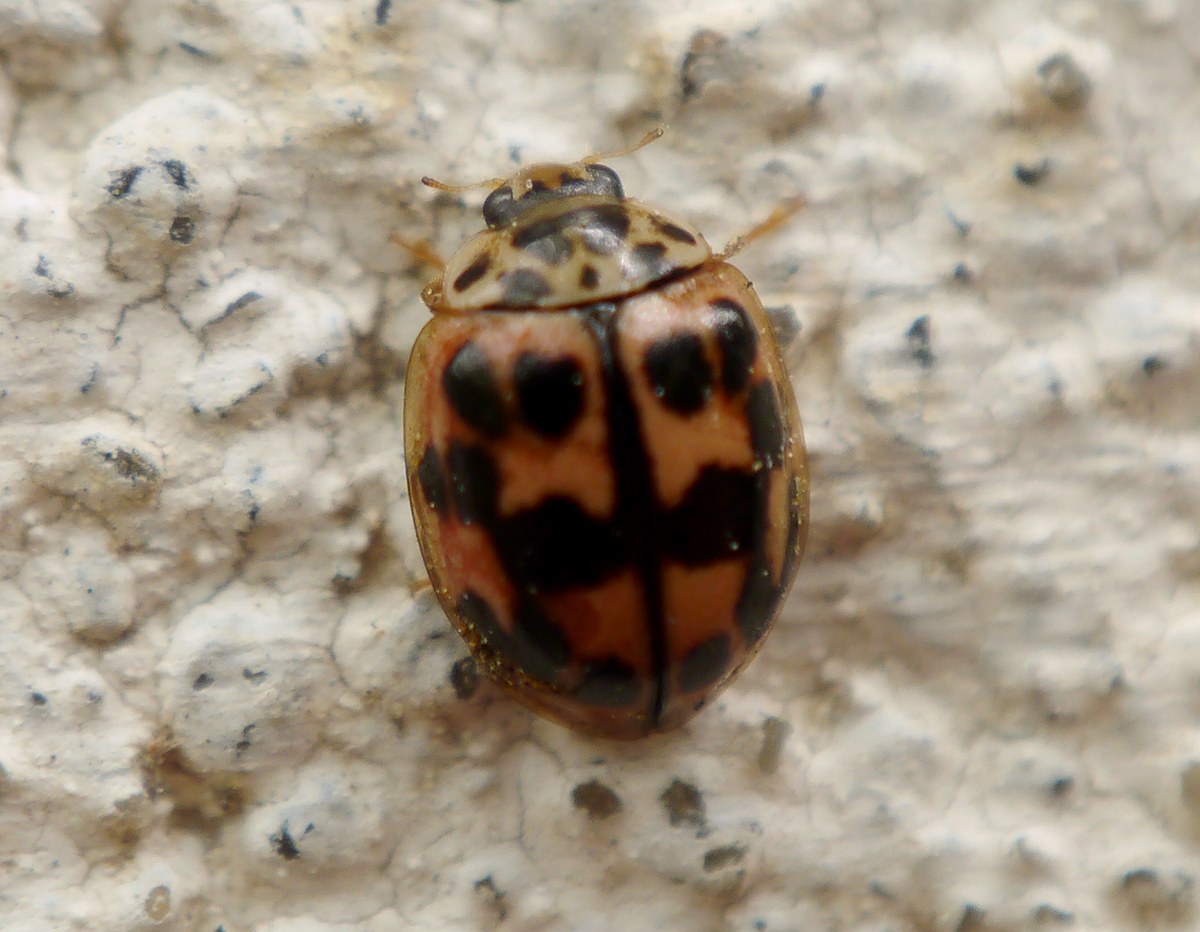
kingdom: Animalia
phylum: Arthropoda
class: Insecta
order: Coleoptera
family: Coccinellidae
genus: Oenopia
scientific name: Oenopia conglobata
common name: Ladybird beetle
